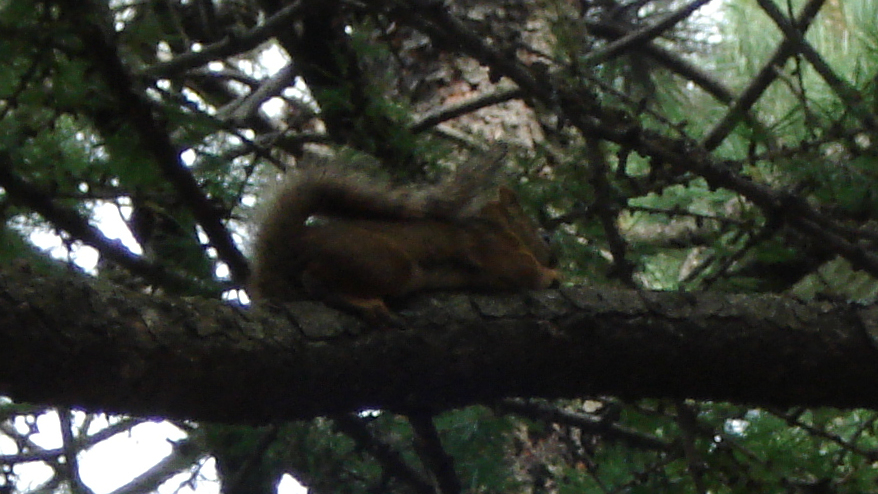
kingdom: Animalia
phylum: Chordata
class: Mammalia
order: Rodentia
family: Sciuridae
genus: Tamiasciurus
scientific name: Tamiasciurus hudsonicus
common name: Red squirrel
